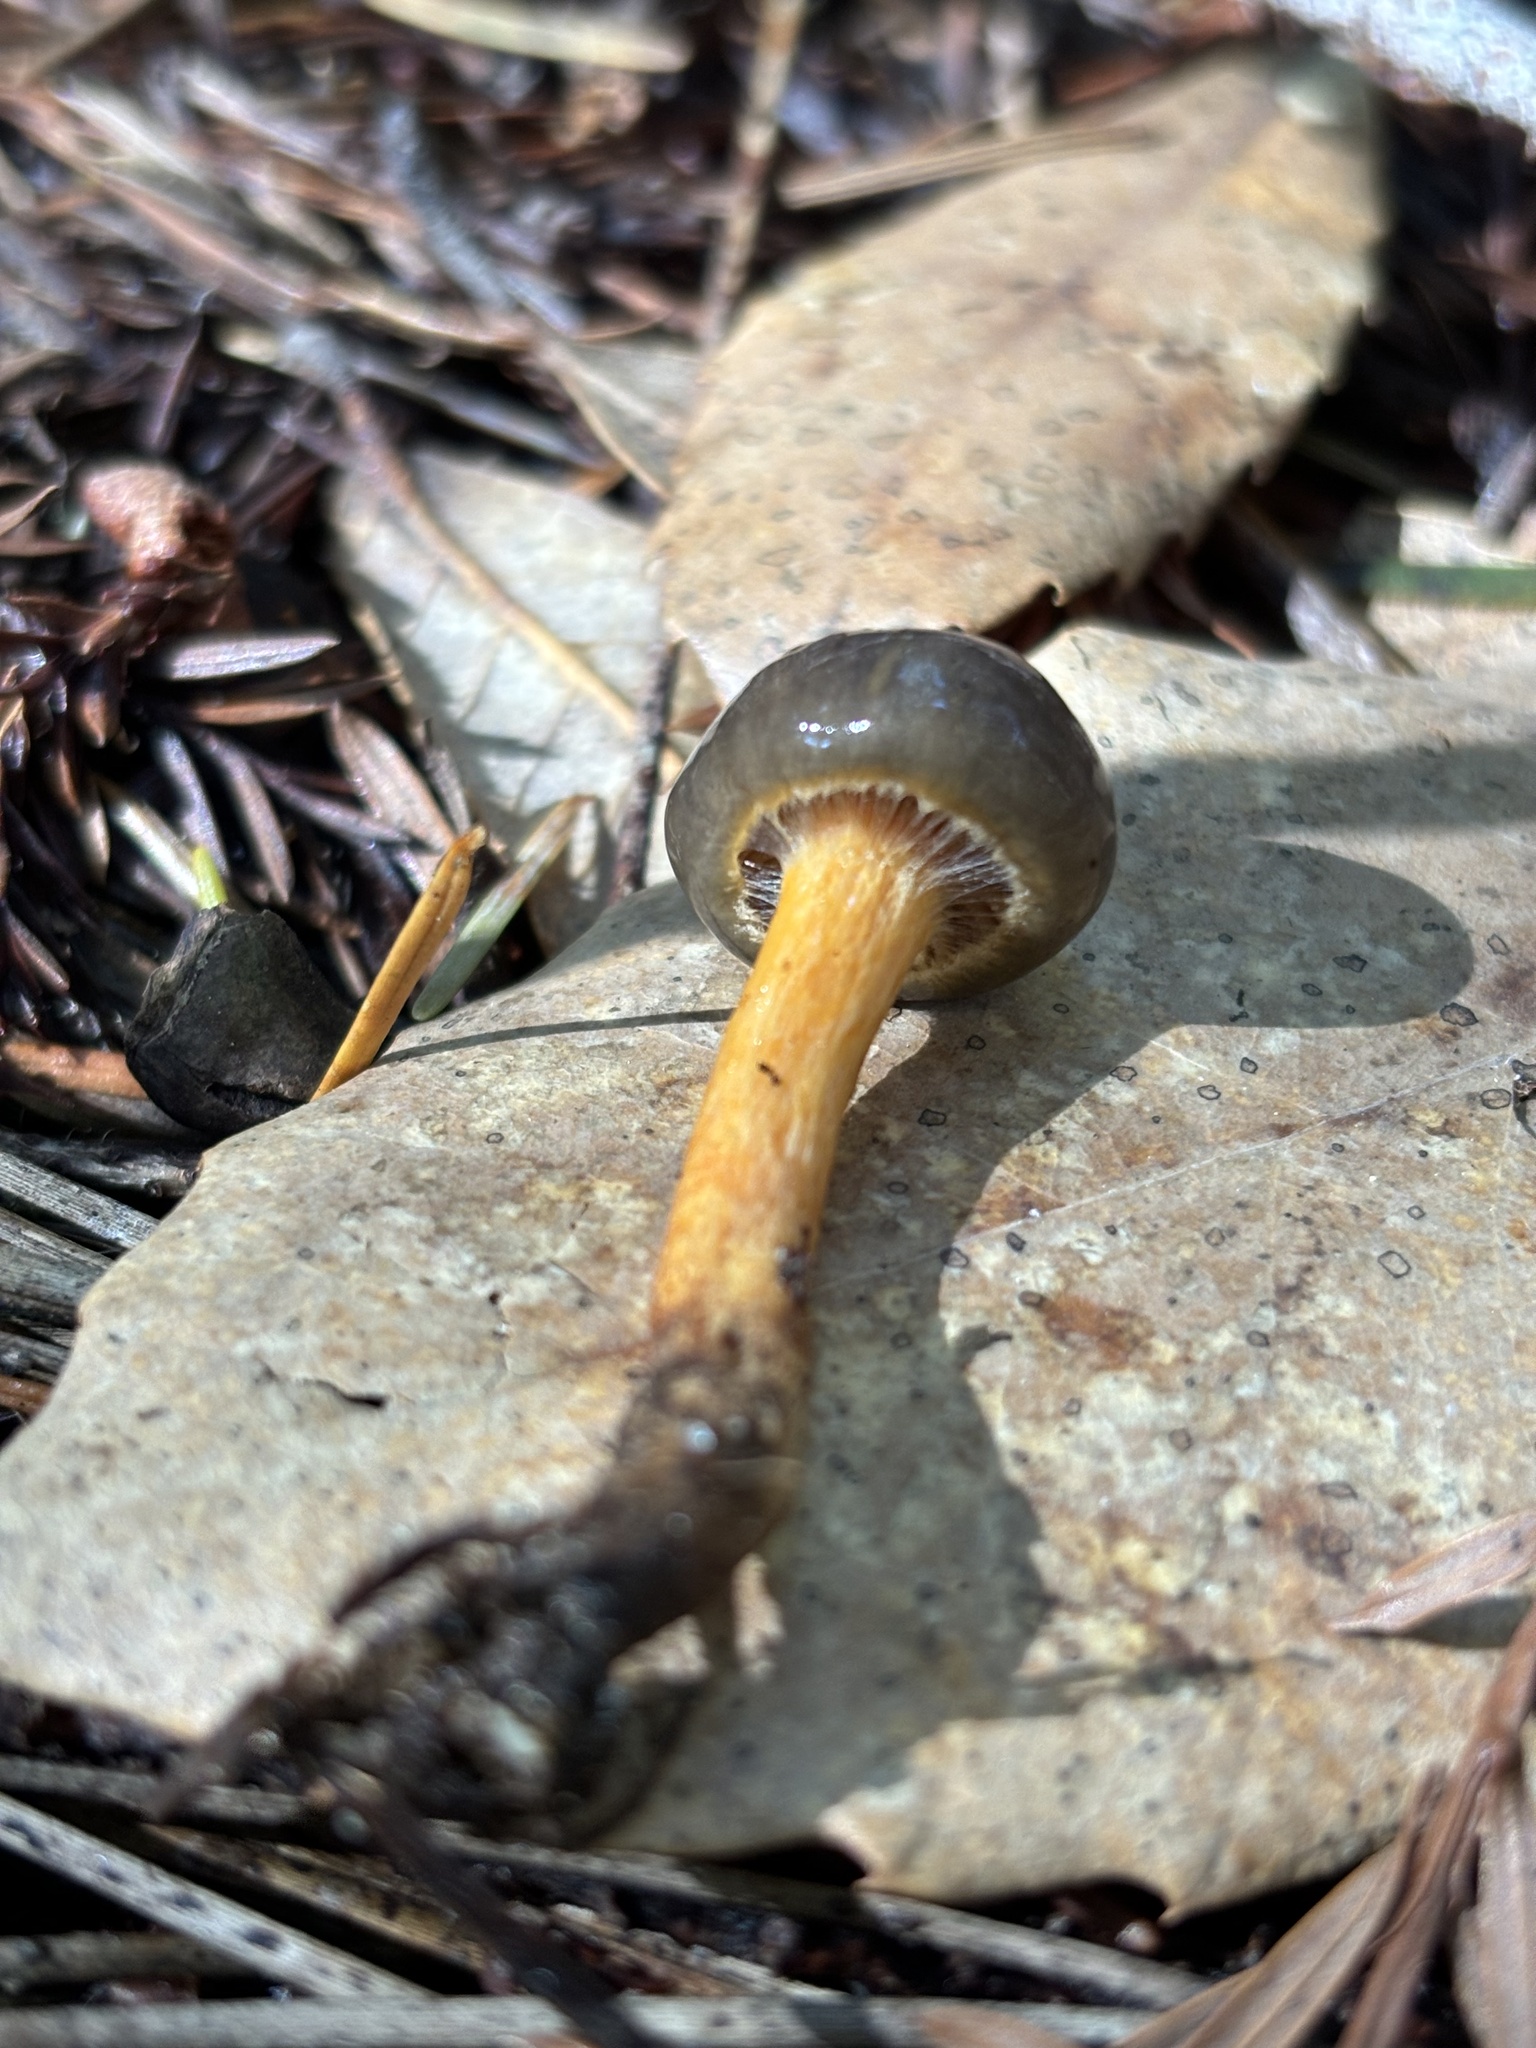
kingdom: Fungi
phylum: Basidiomycota
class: Agaricomycetes
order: Boletales
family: Gomphidiaceae
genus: Chroogomphus
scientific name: Chroogomphus vinicolor
